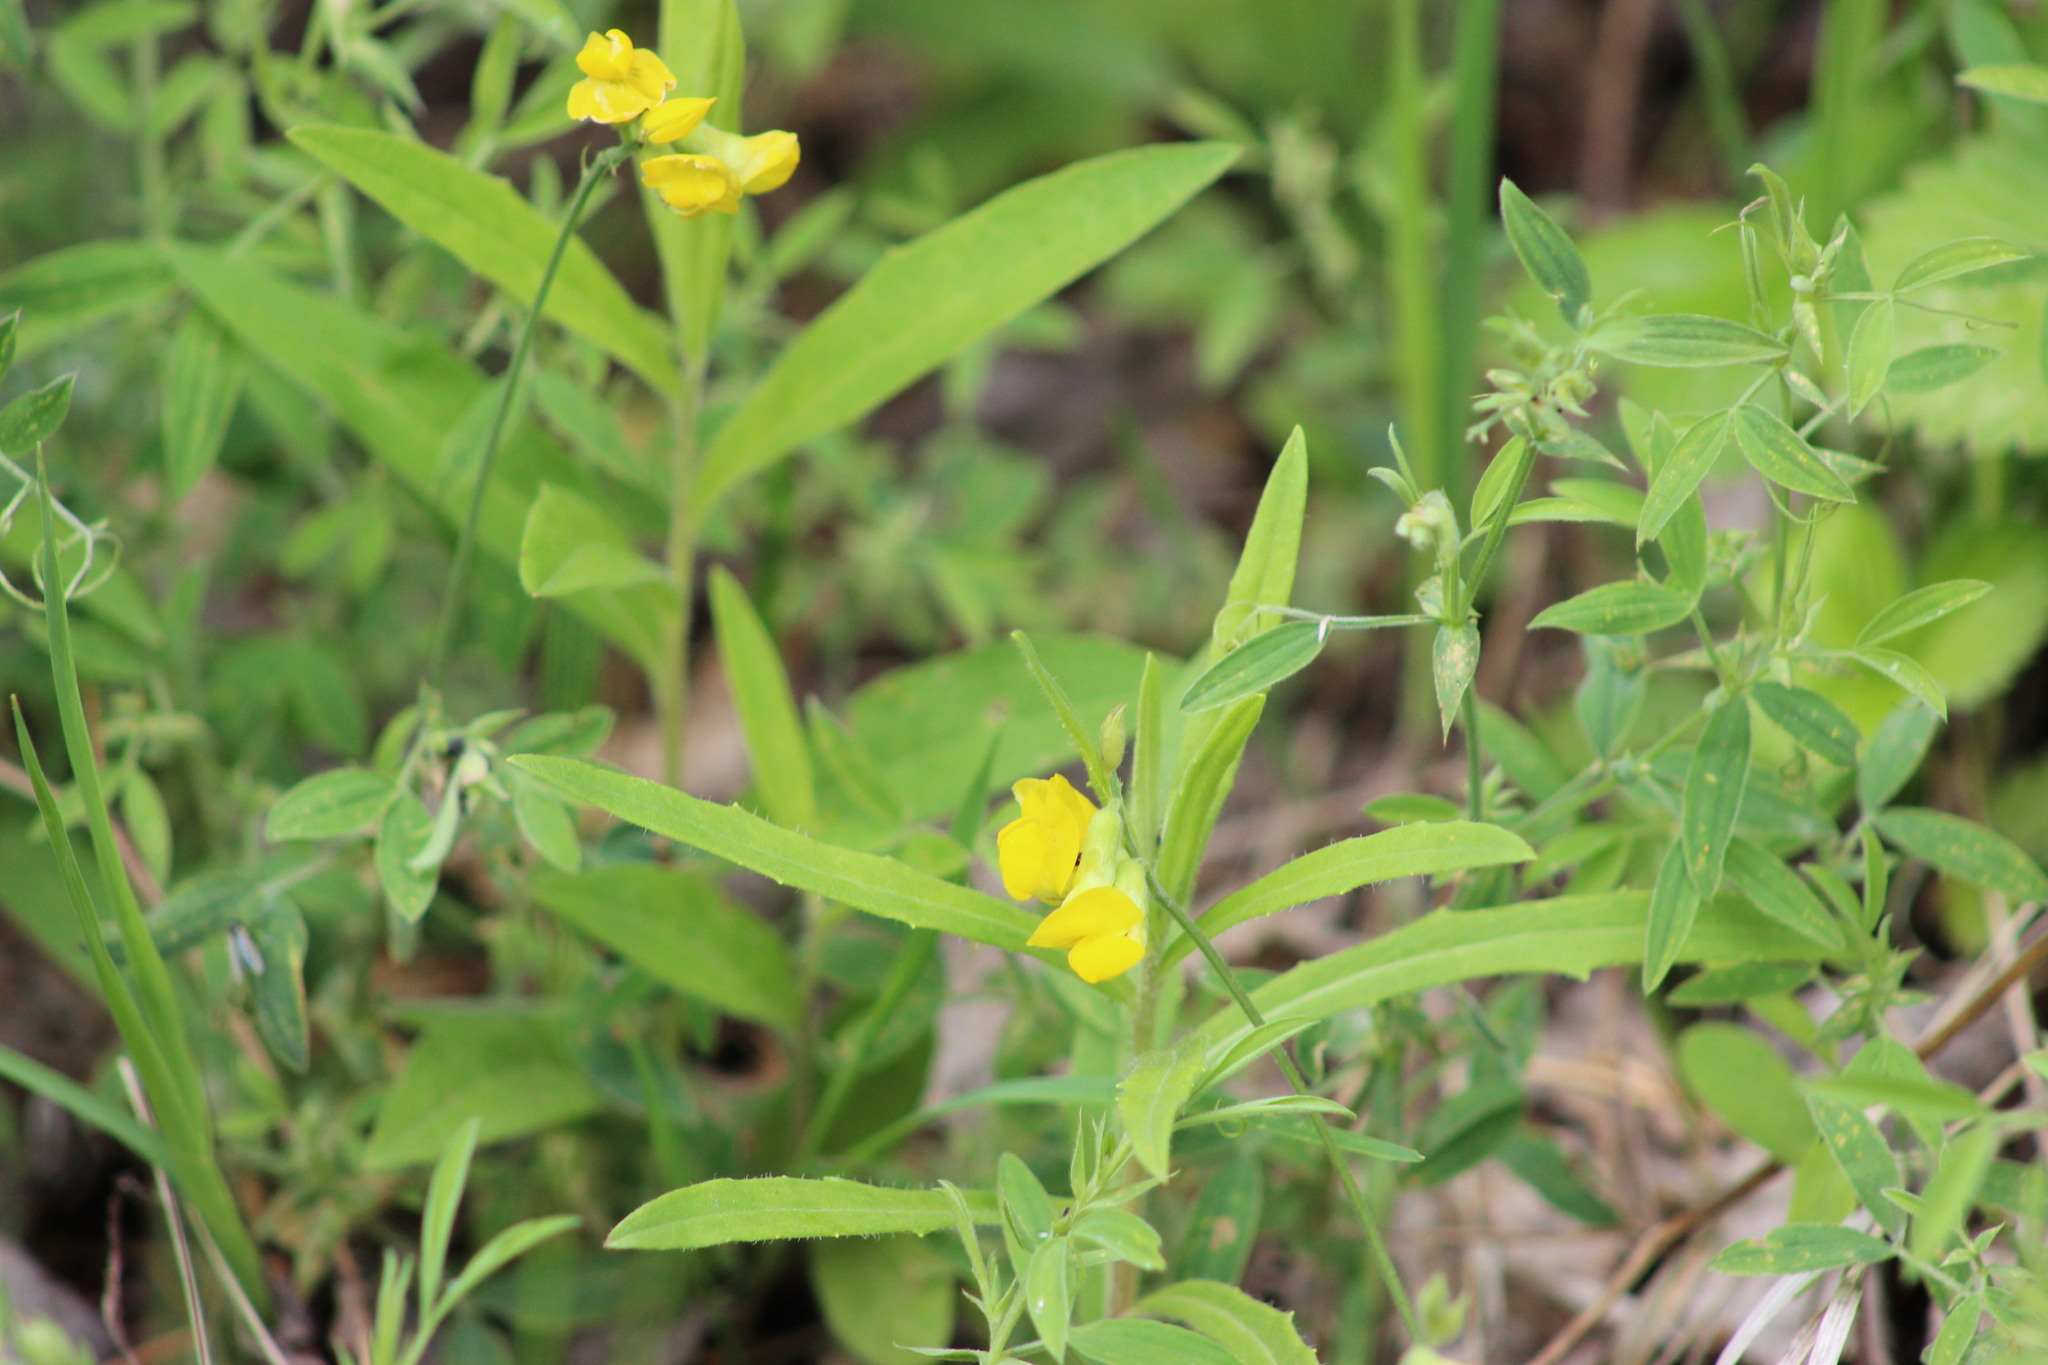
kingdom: Plantae
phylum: Tracheophyta
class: Magnoliopsida
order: Fabales
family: Fabaceae
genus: Lathyrus
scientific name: Lathyrus pratensis
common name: Meadow vetchling
